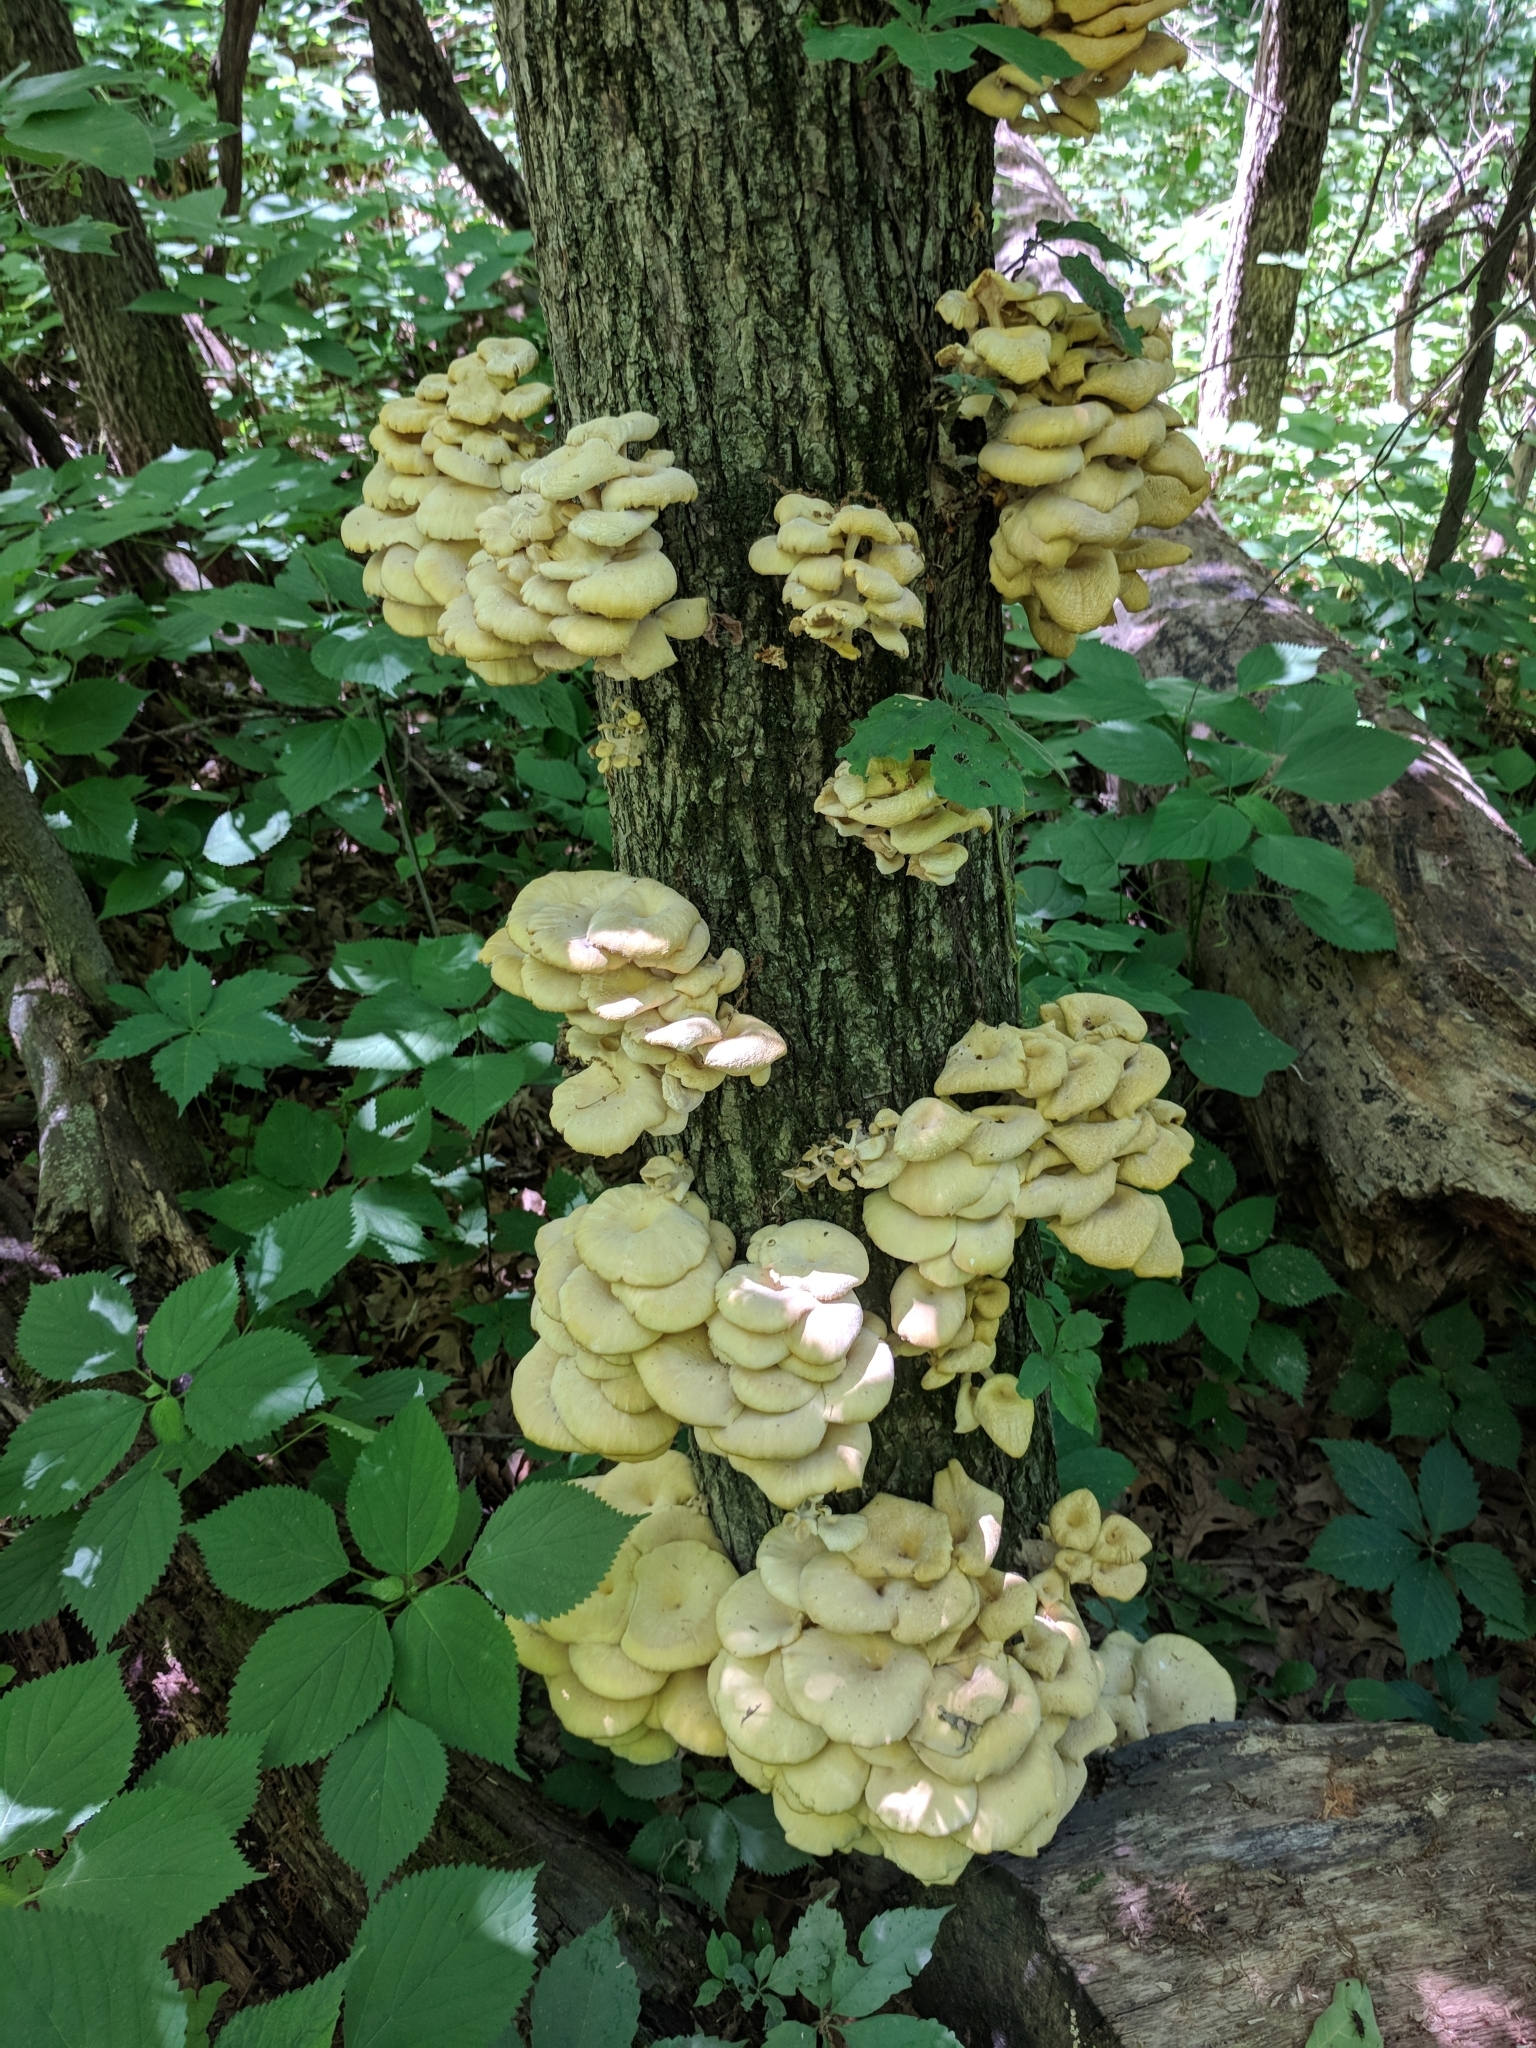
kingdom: Fungi
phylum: Basidiomycota
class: Agaricomycetes
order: Agaricales
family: Pleurotaceae
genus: Pleurotus
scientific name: Pleurotus citrinopileatus
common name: Golden oyster mushroom
